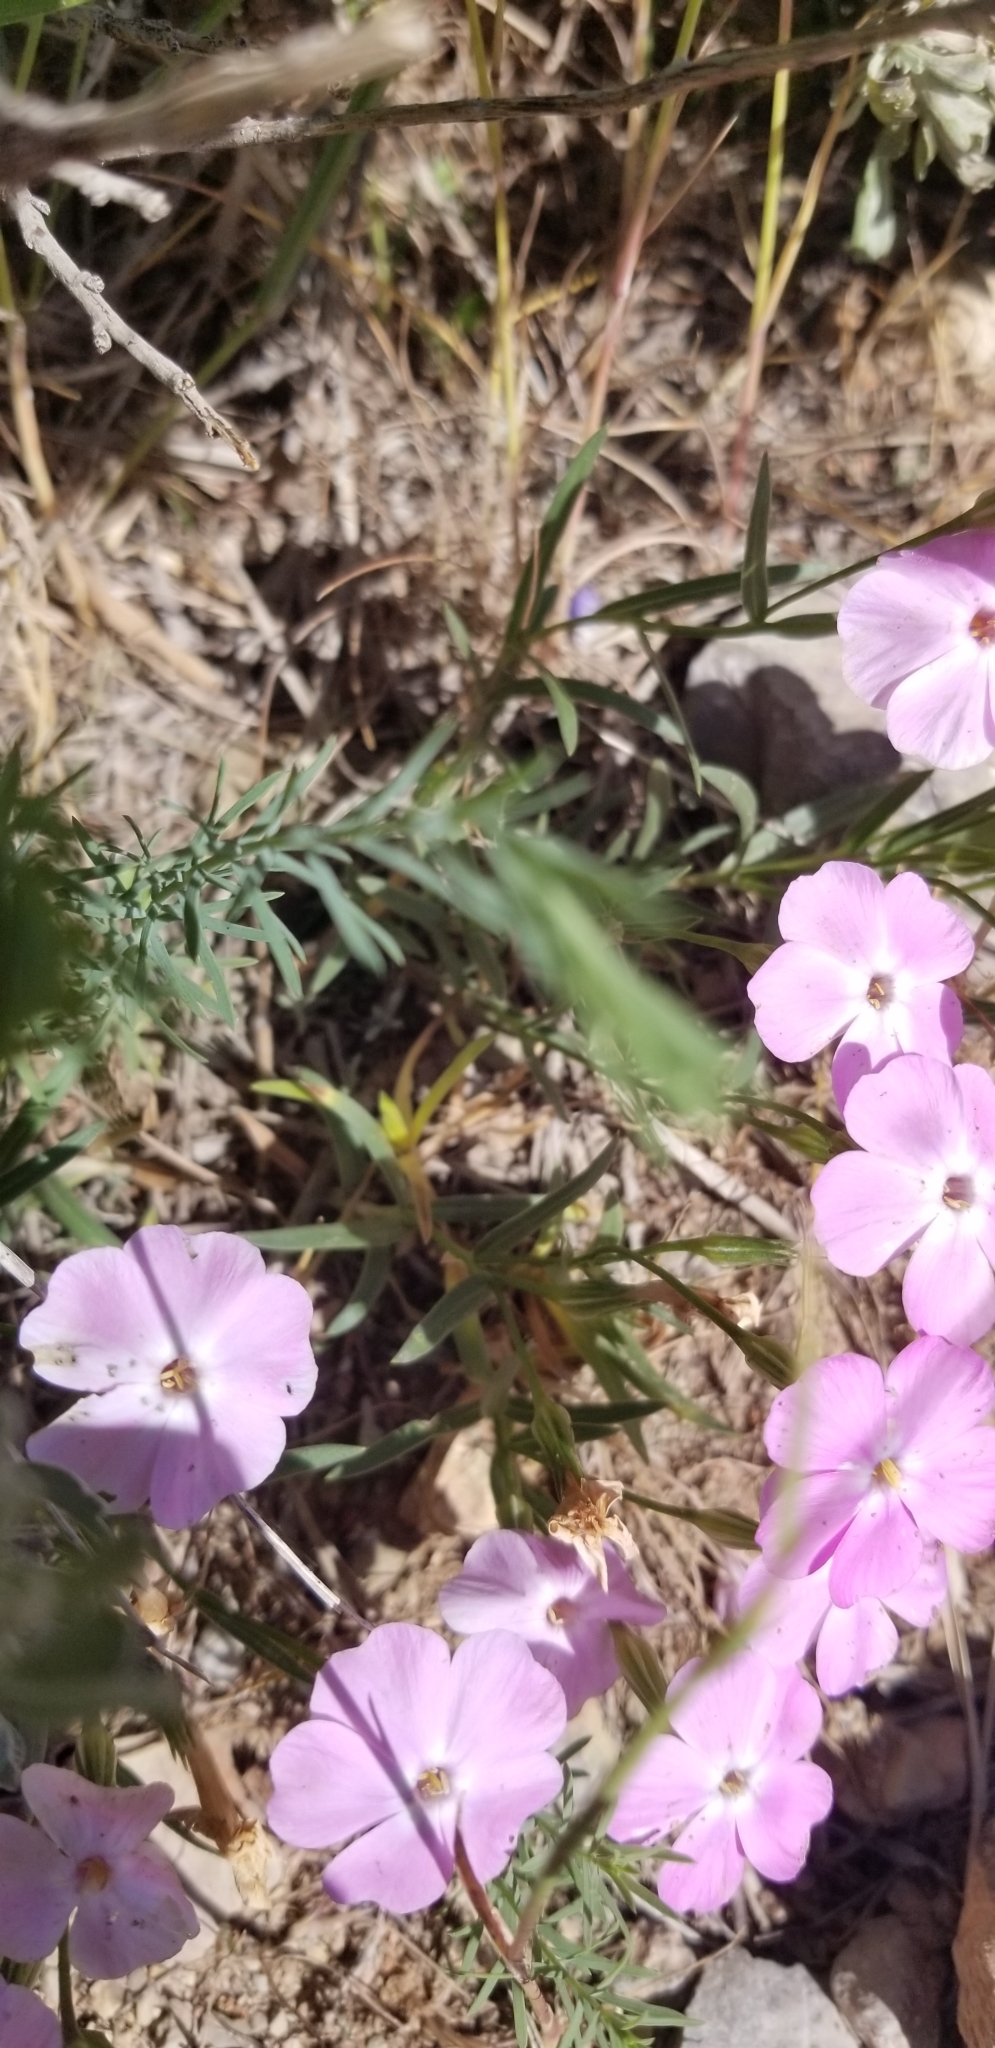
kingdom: Plantae
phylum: Tracheophyta
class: Magnoliopsida
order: Ericales
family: Polemoniaceae
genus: Phlox
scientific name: Phlox longifolia
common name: Longleaf phlox
